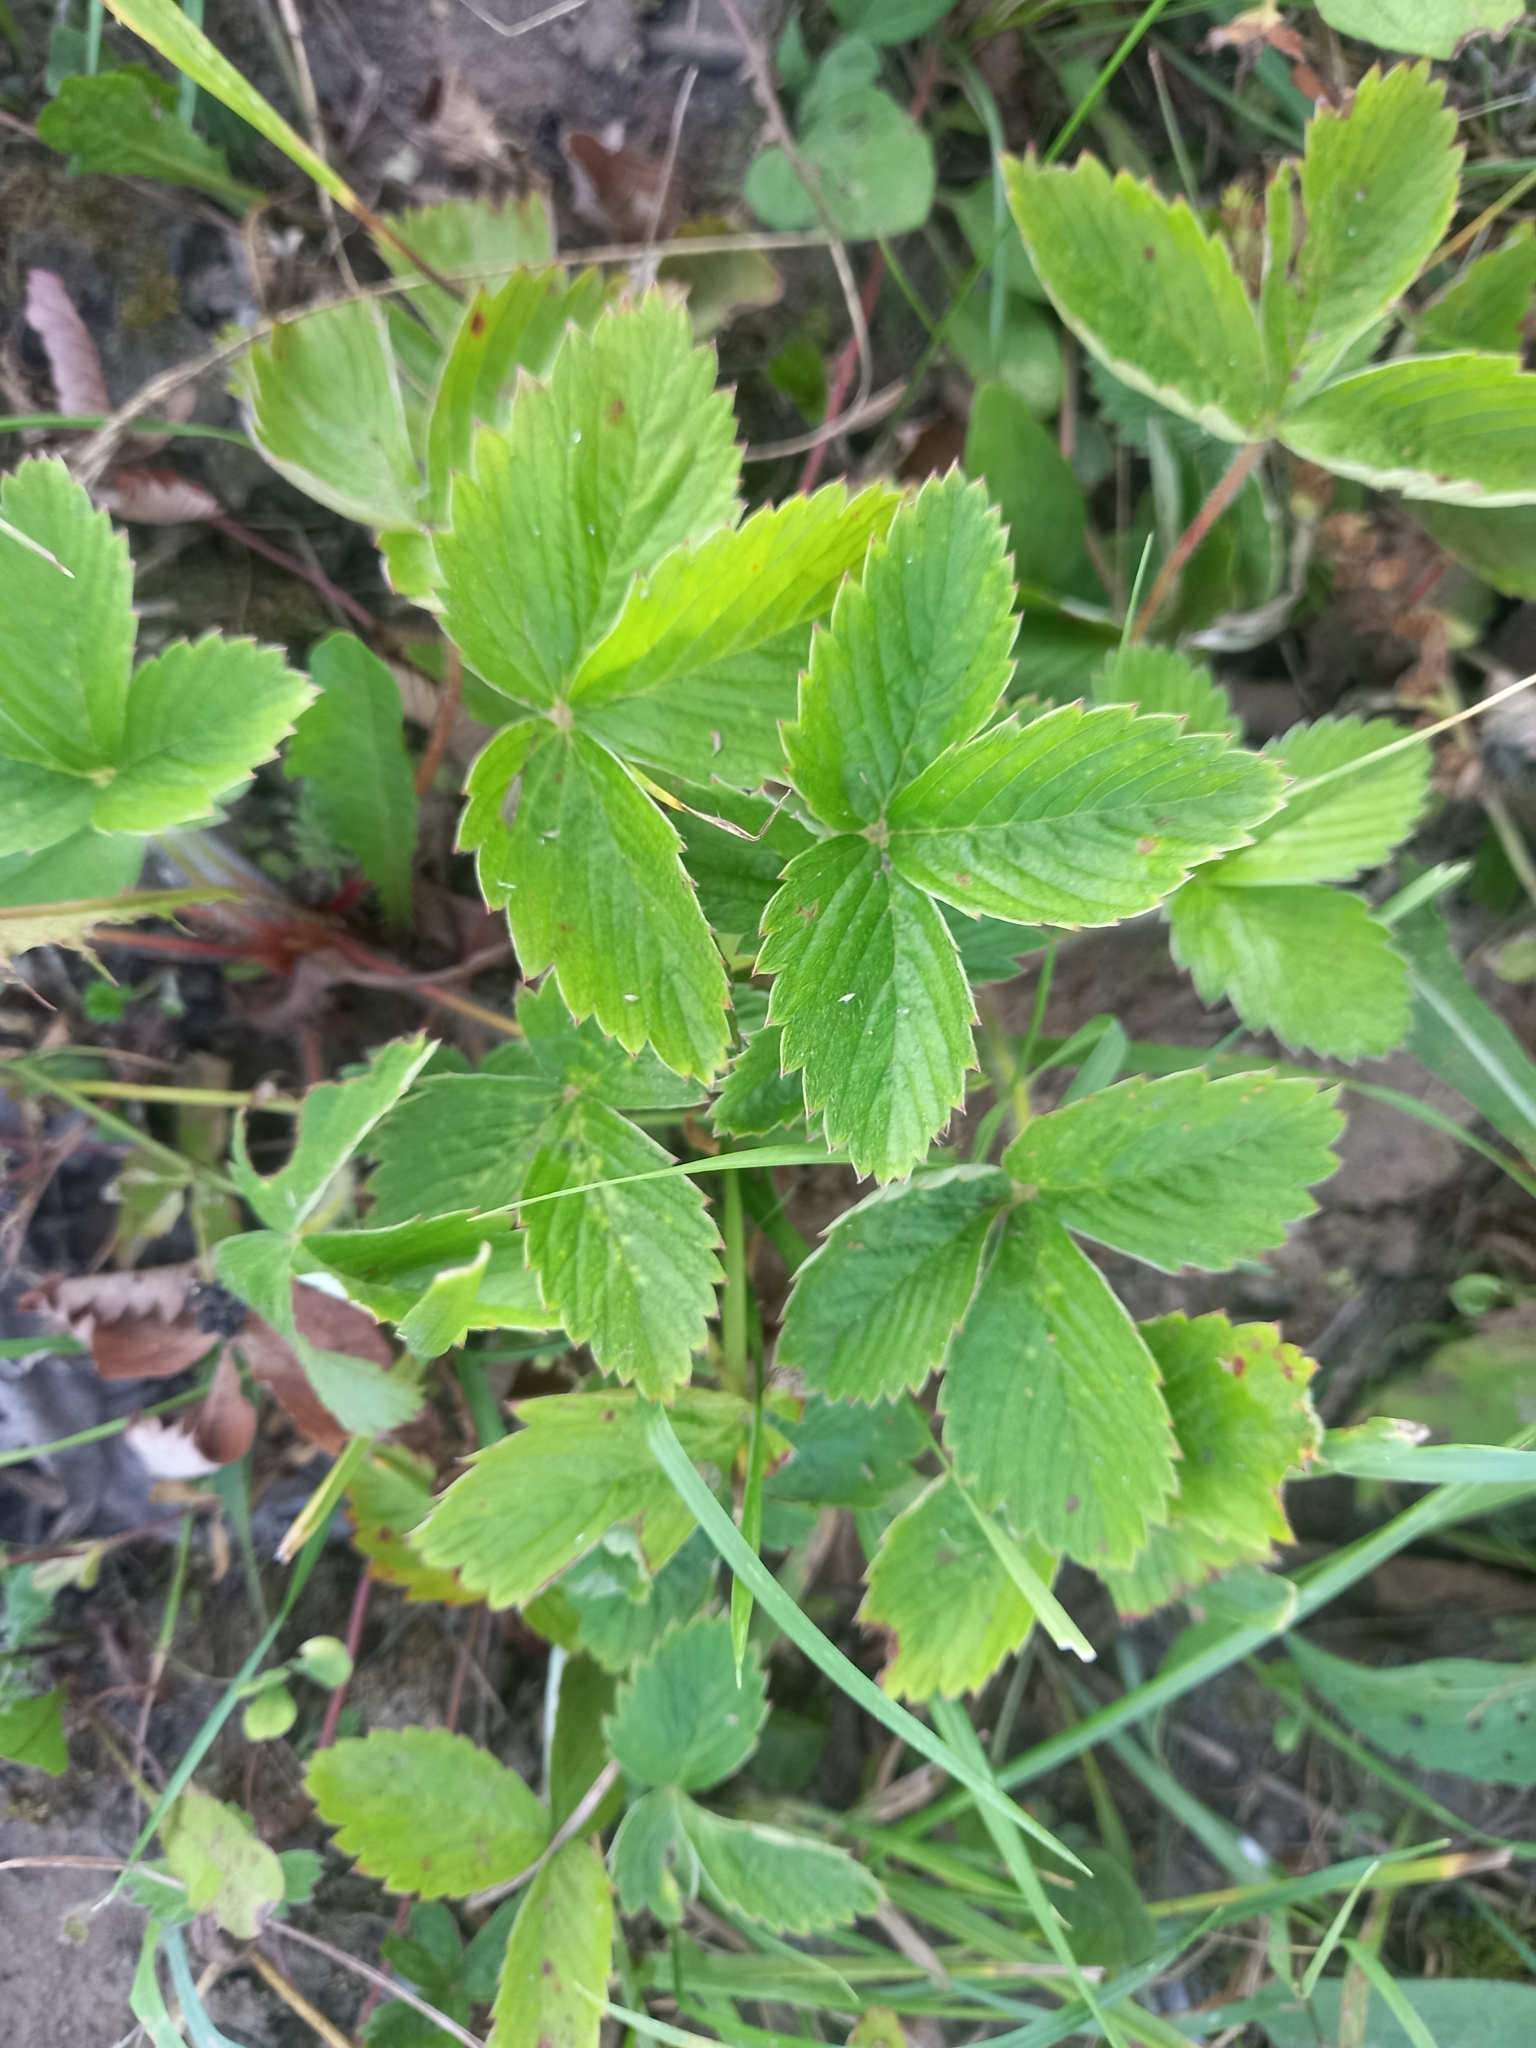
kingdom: Plantae
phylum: Tracheophyta
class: Magnoliopsida
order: Rosales
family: Rosaceae
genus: Fragaria
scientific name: Fragaria viridis
